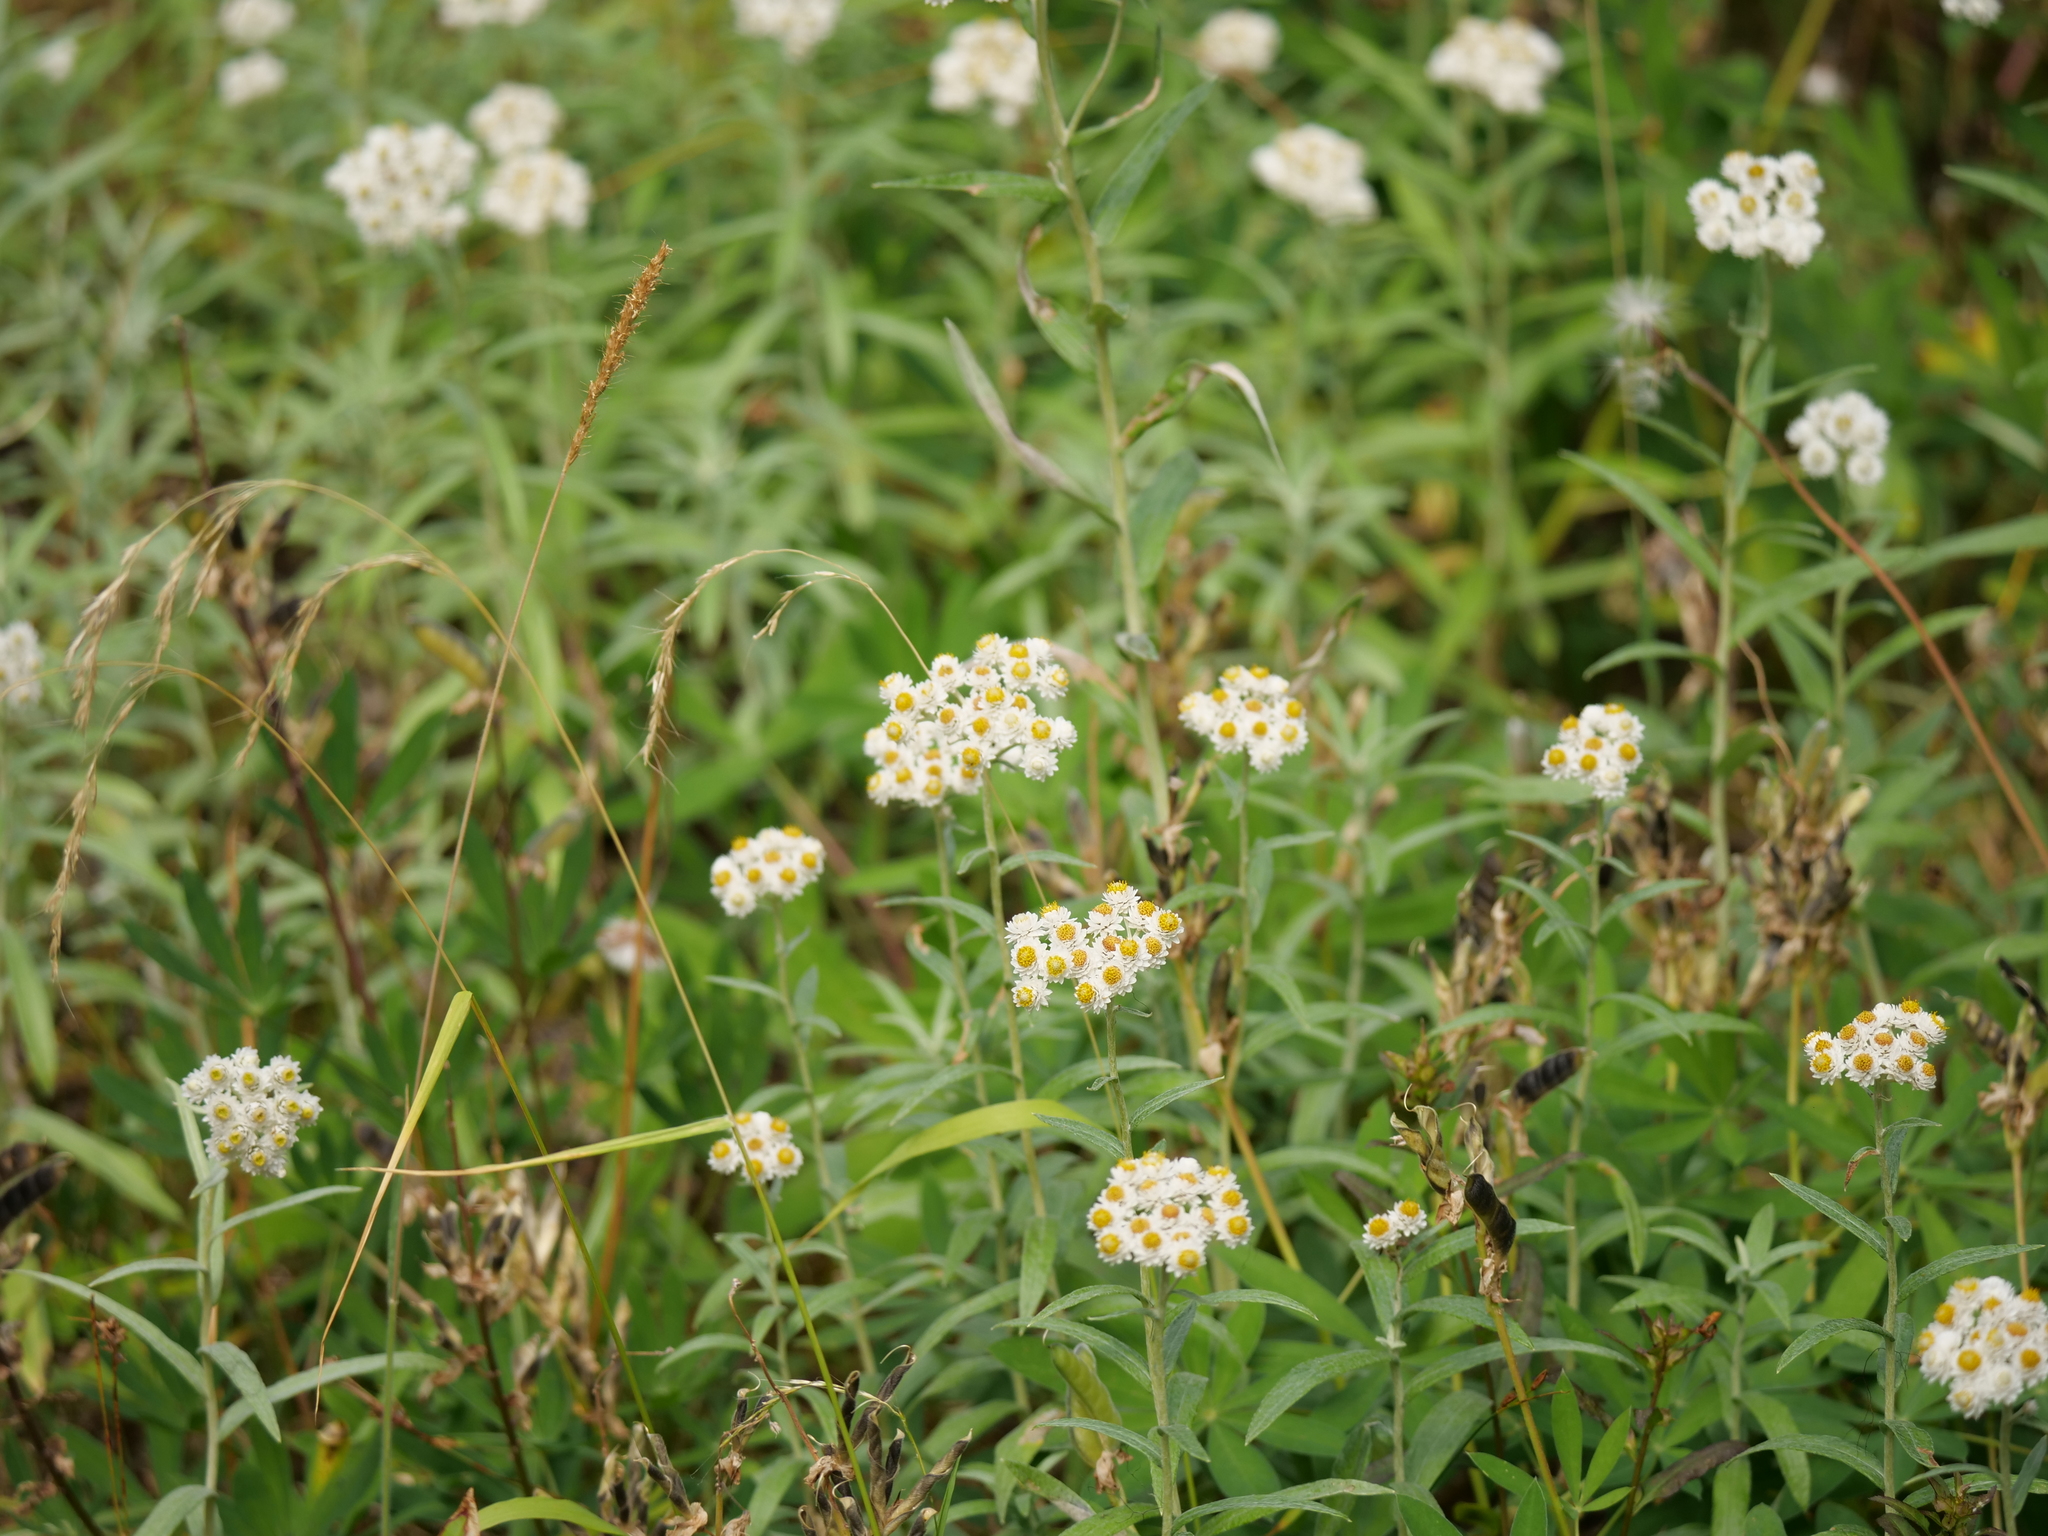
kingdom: Plantae
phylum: Tracheophyta
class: Magnoliopsida
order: Asterales
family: Asteraceae
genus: Anaphalis
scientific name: Anaphalis margaritacea
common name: Pearly everlasting
